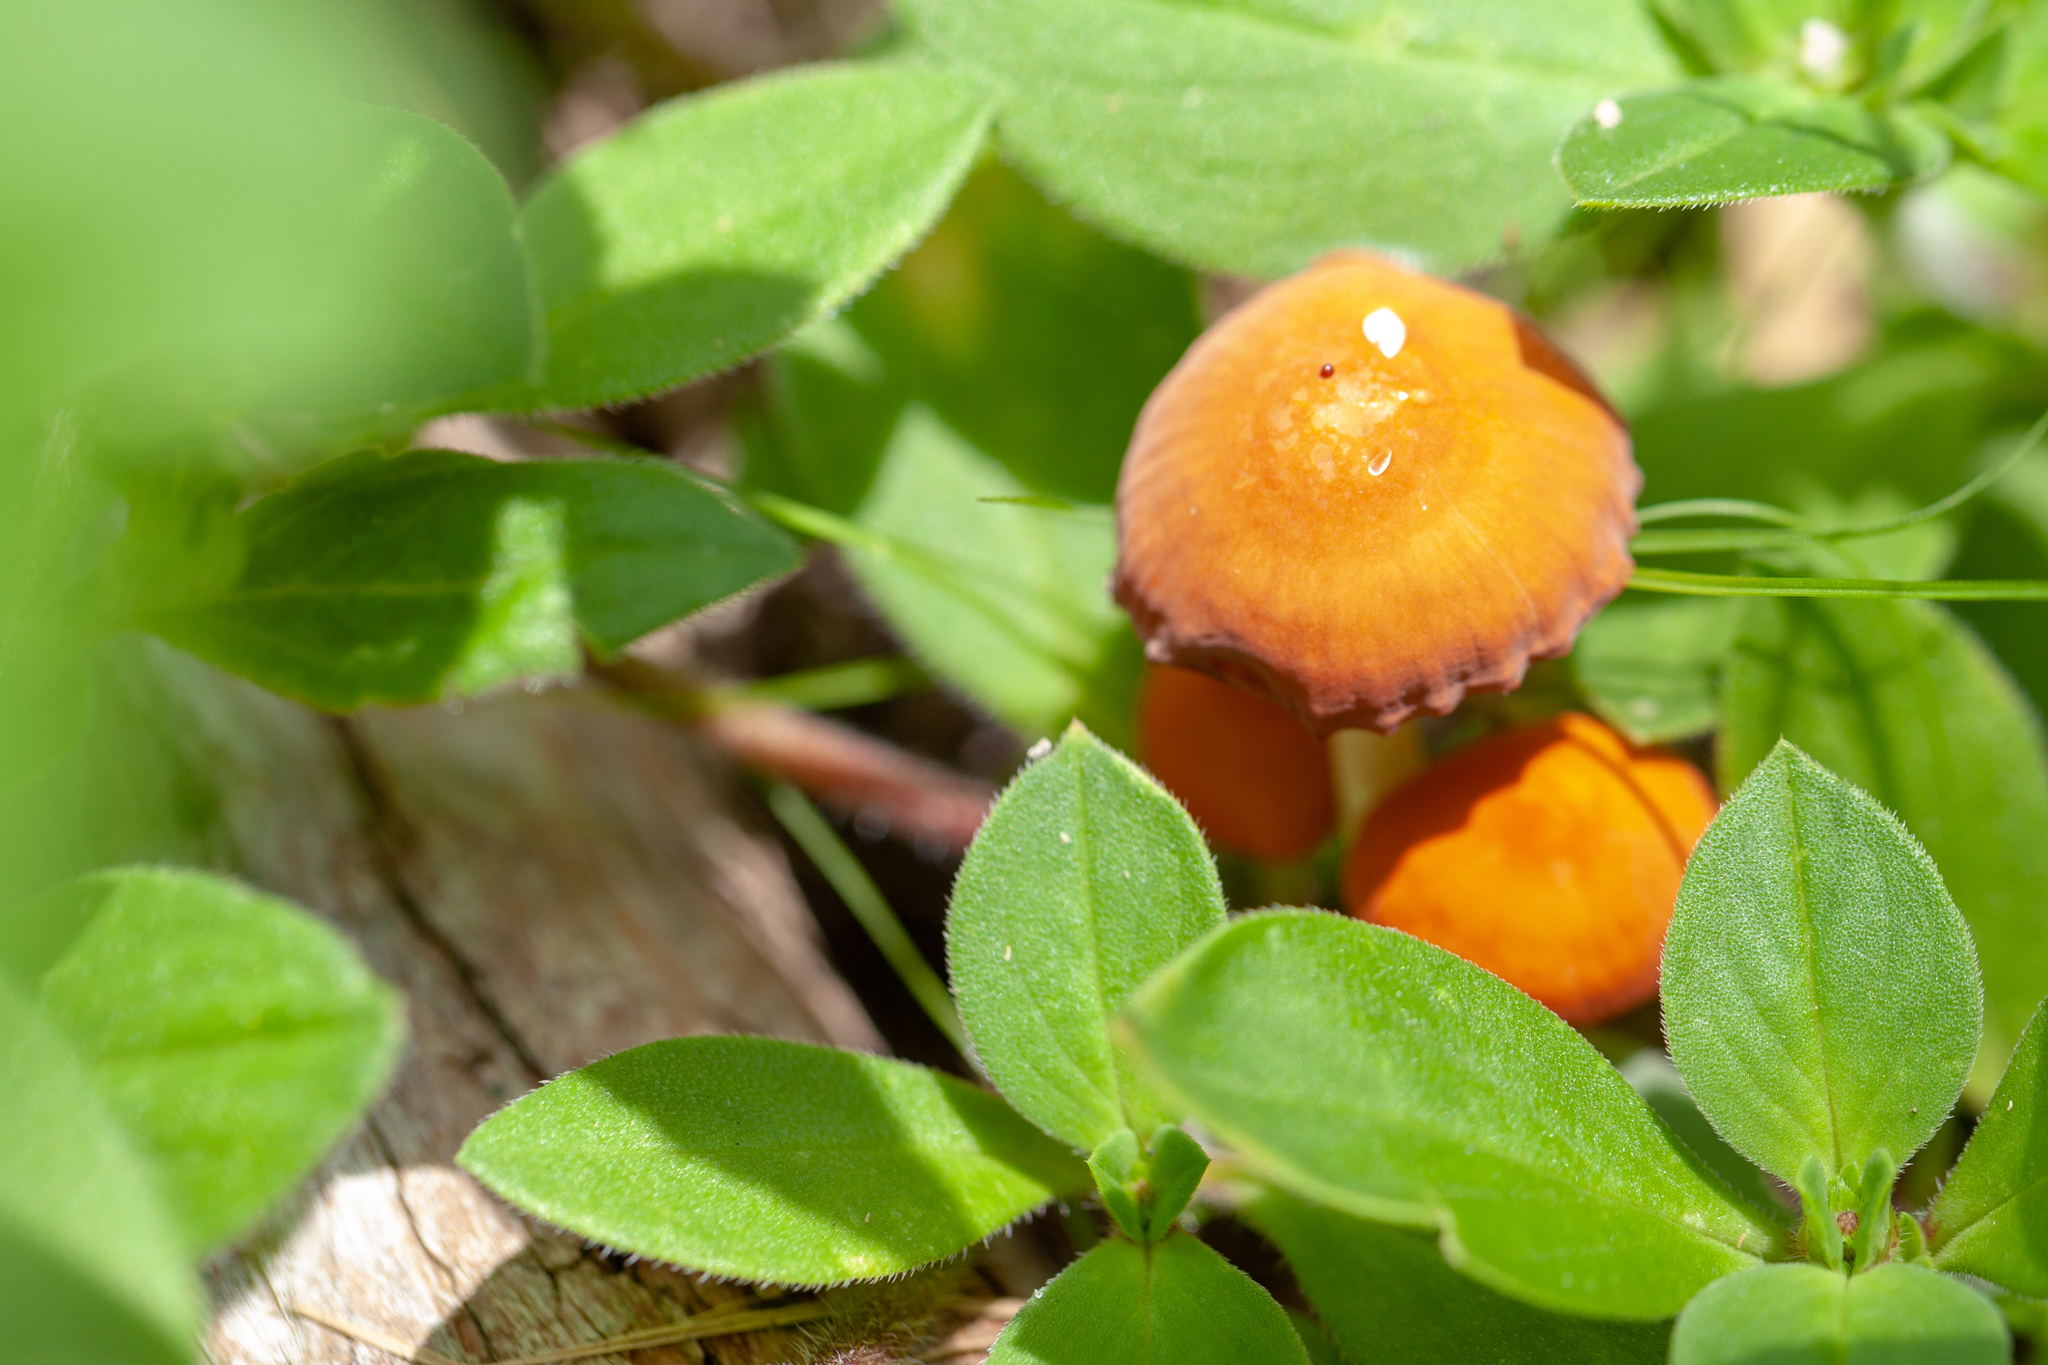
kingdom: Fungi
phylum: Basidiomycota
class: Agaricomycetes
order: Agaricales
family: Marasmiaceae
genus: Marasmius
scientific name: Marasmius vagus
